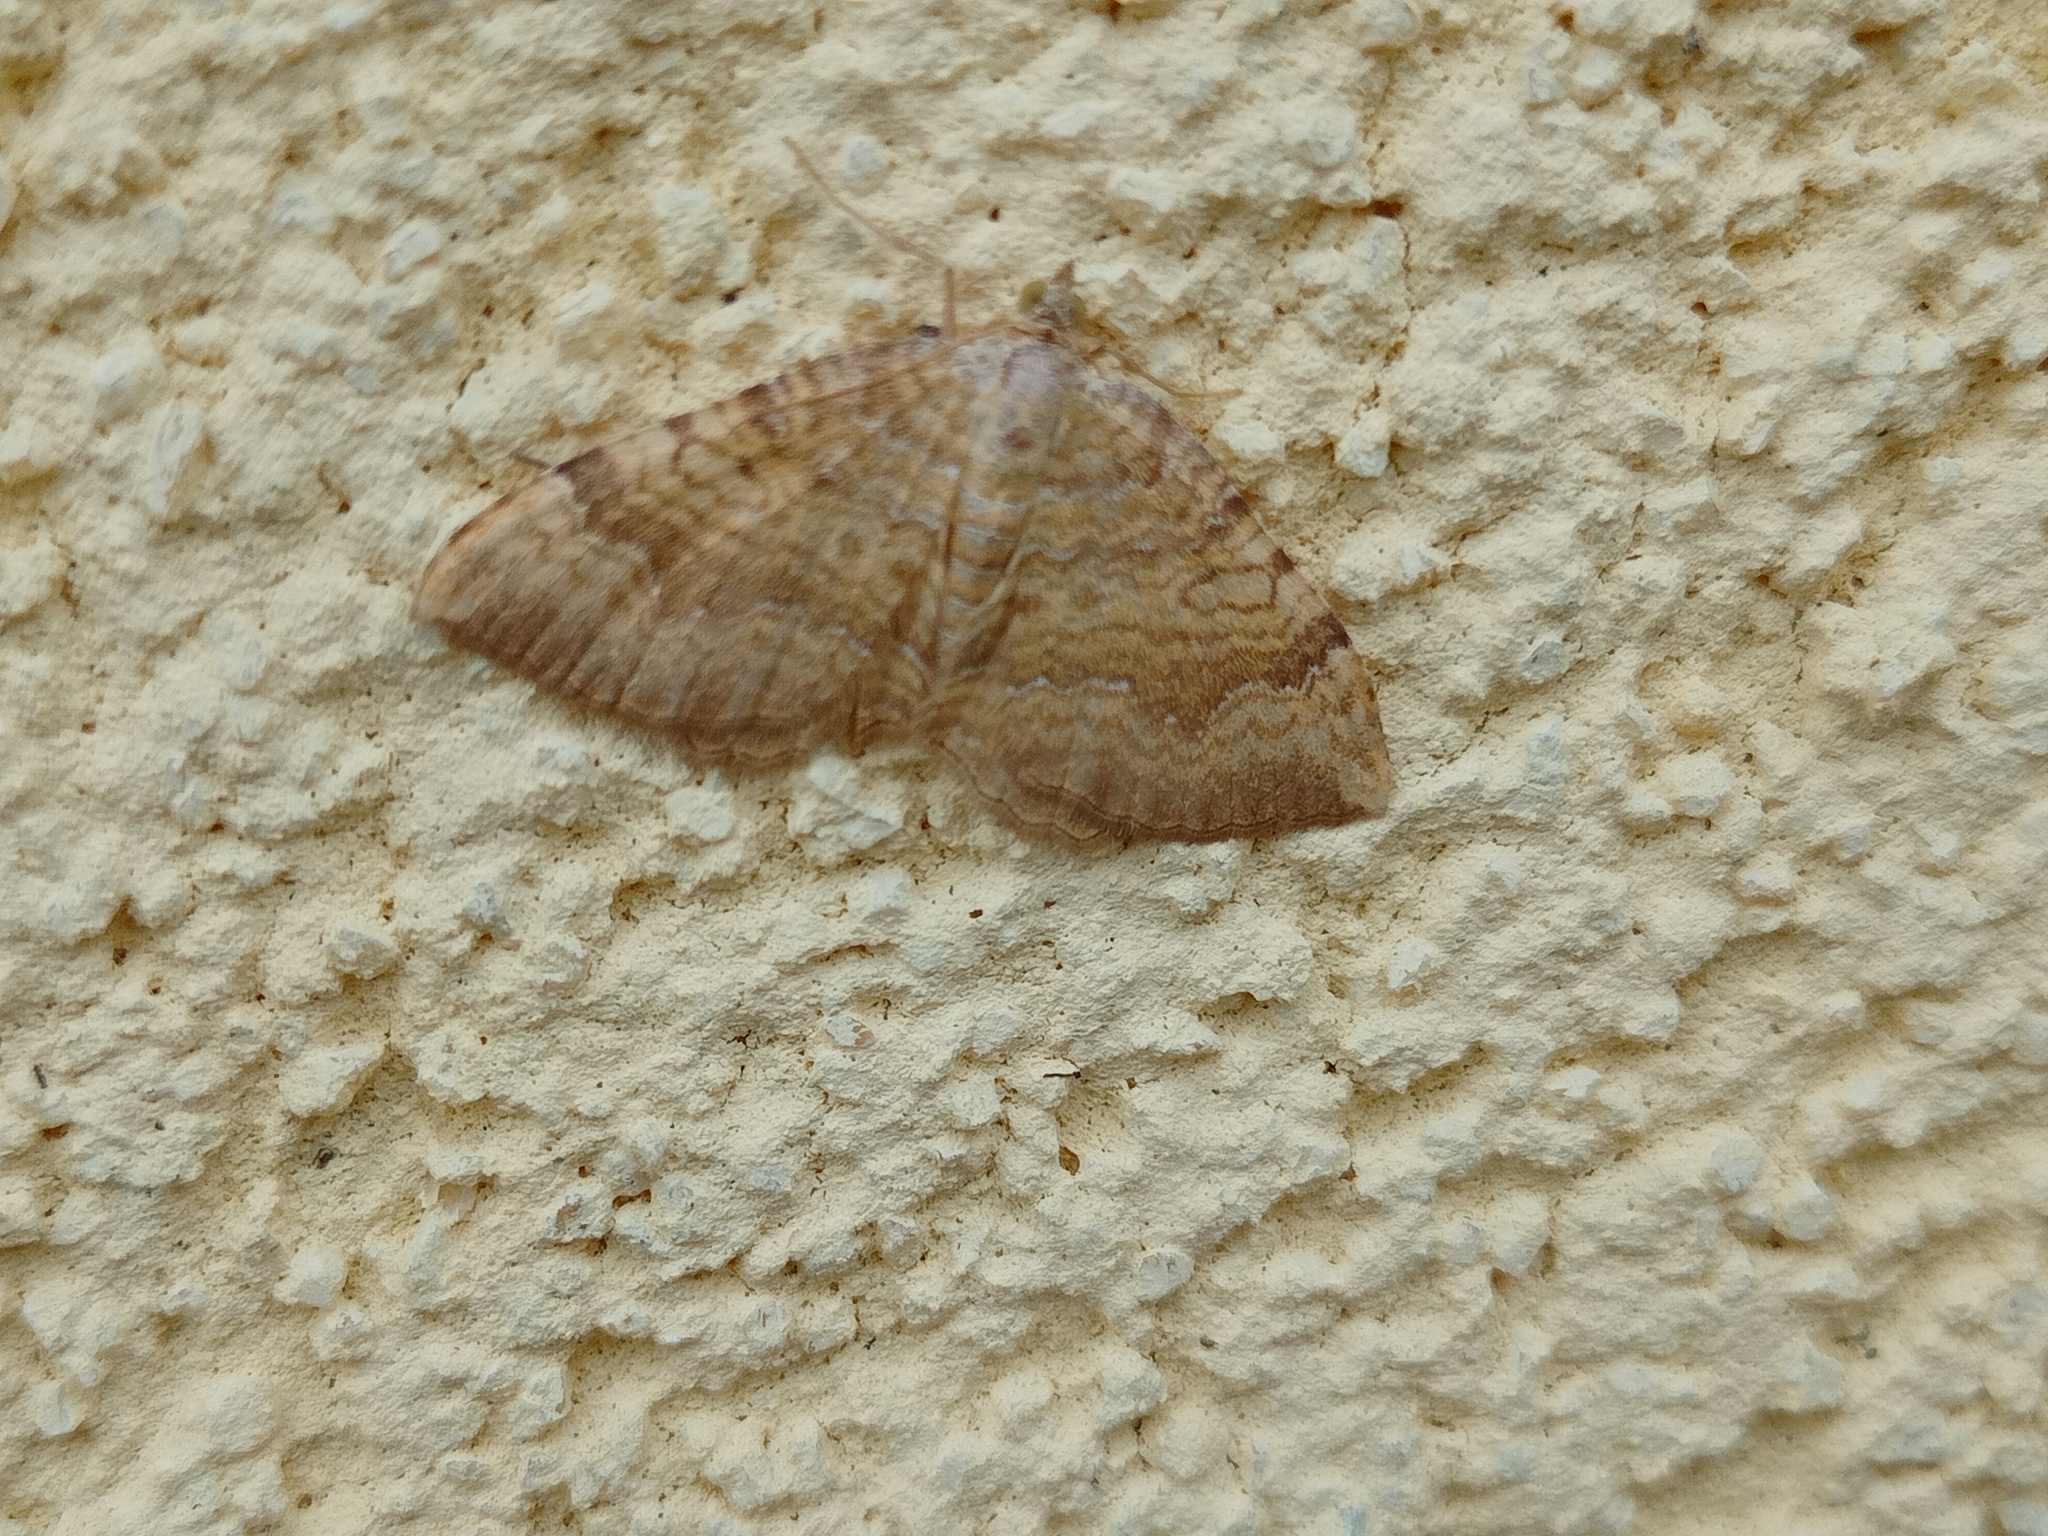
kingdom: Animalia
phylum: Arthropoda
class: Insecta
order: Lepidoptera
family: Geometridae
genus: Camptogramma
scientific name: Camptogramma bilineata
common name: Yellow shell
